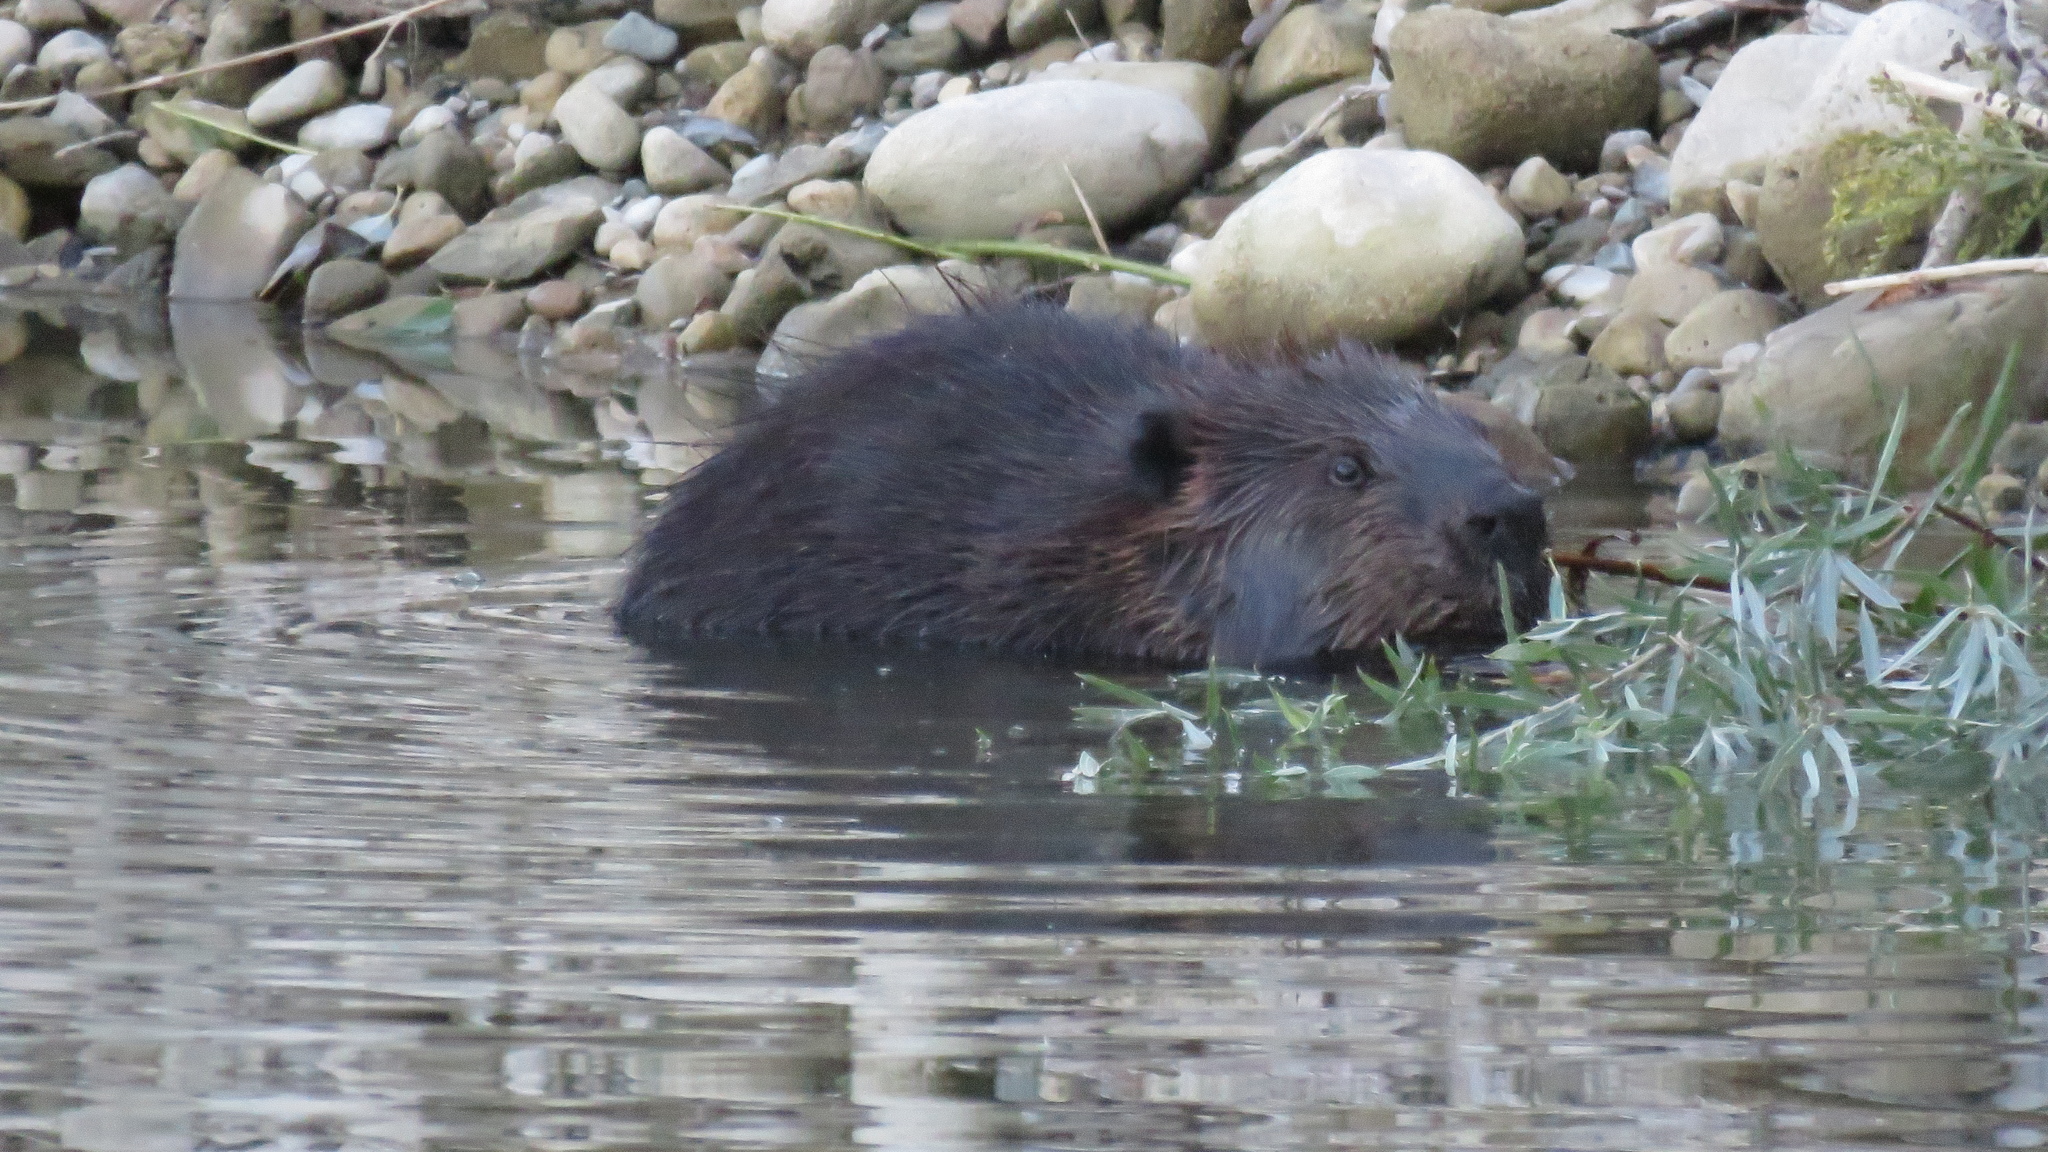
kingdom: Animalia
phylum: Chordata
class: Mammalia
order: Rodentia
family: Castoridae
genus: Castor
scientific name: Castor canadensis
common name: American beaver
